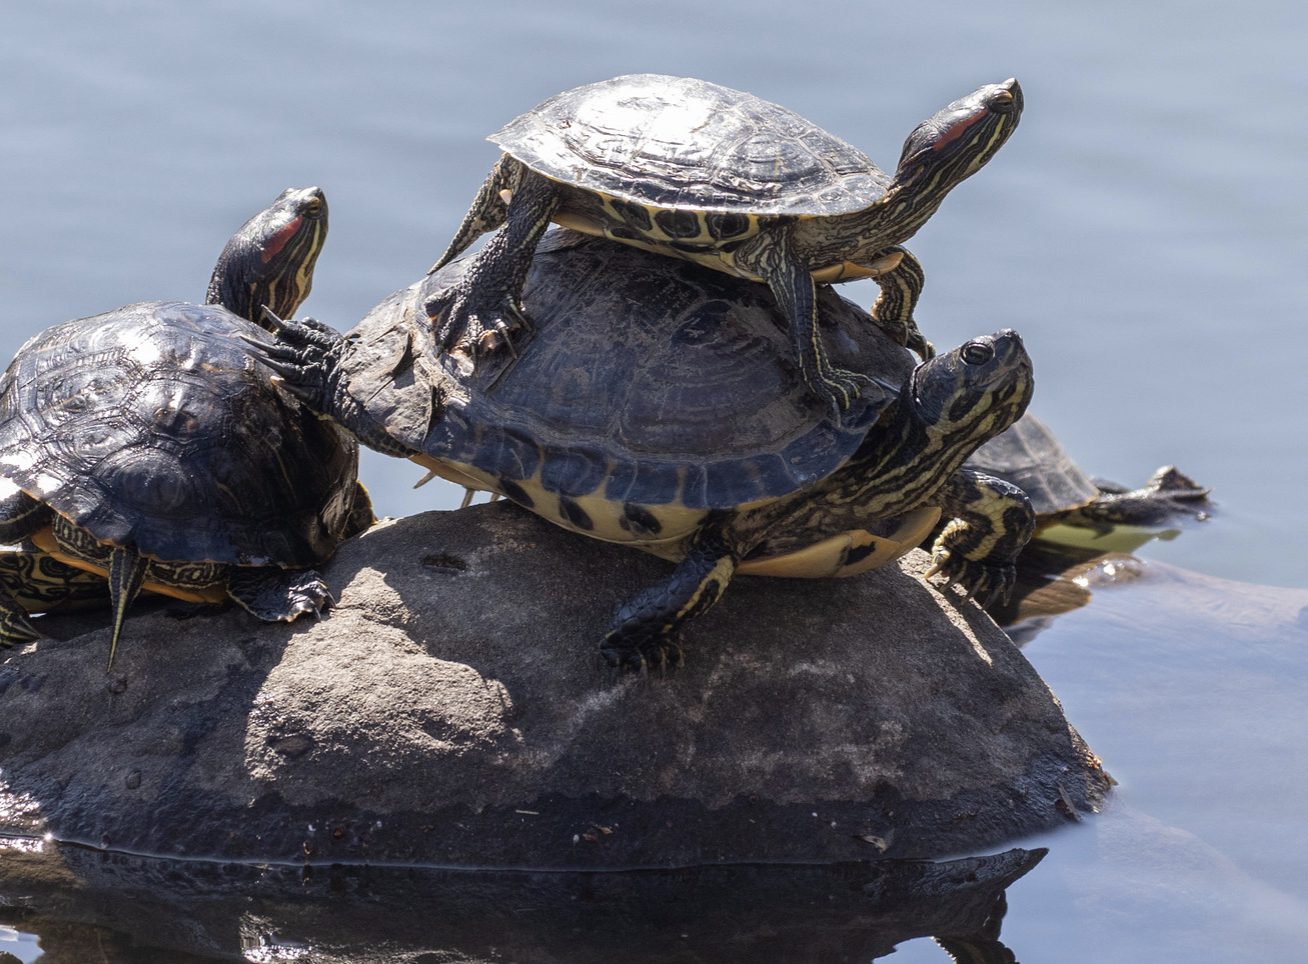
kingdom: Animalia
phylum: Chordata
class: Testudines
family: Emydidae
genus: Trachemys
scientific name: Trachemys scripta
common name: Slider
